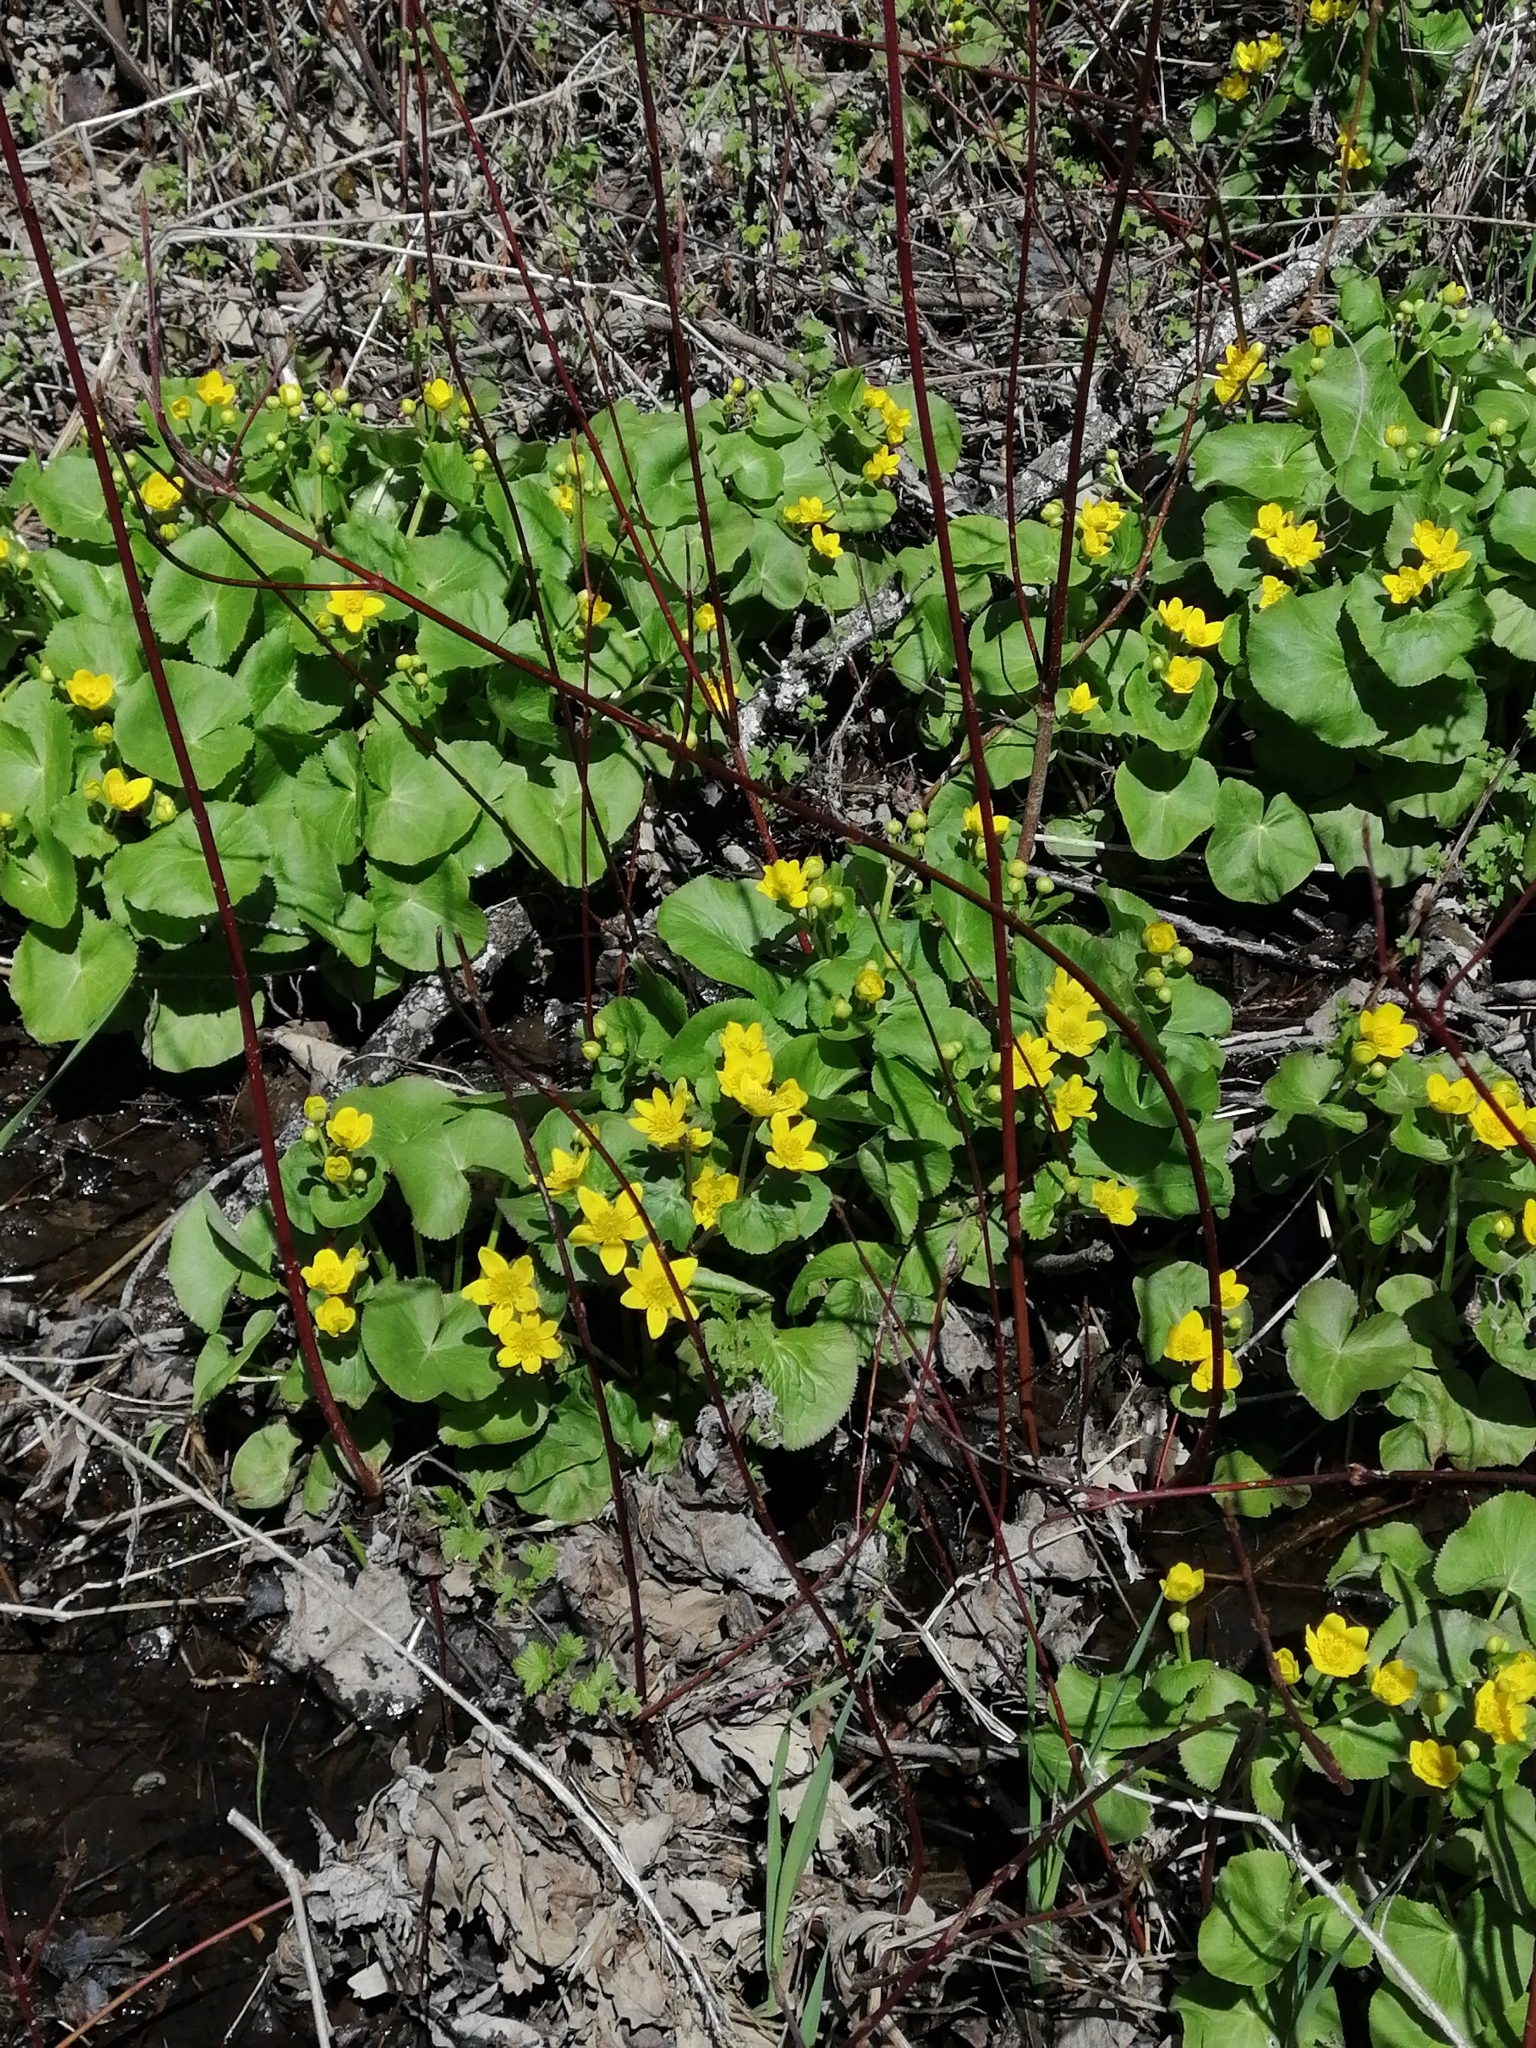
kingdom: Plantae
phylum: Tracheophyta
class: Magnoliopsida
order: Ranunculales
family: Ranunculaceae
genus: Caltha
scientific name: Caltha palustris
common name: Marsh marigold
